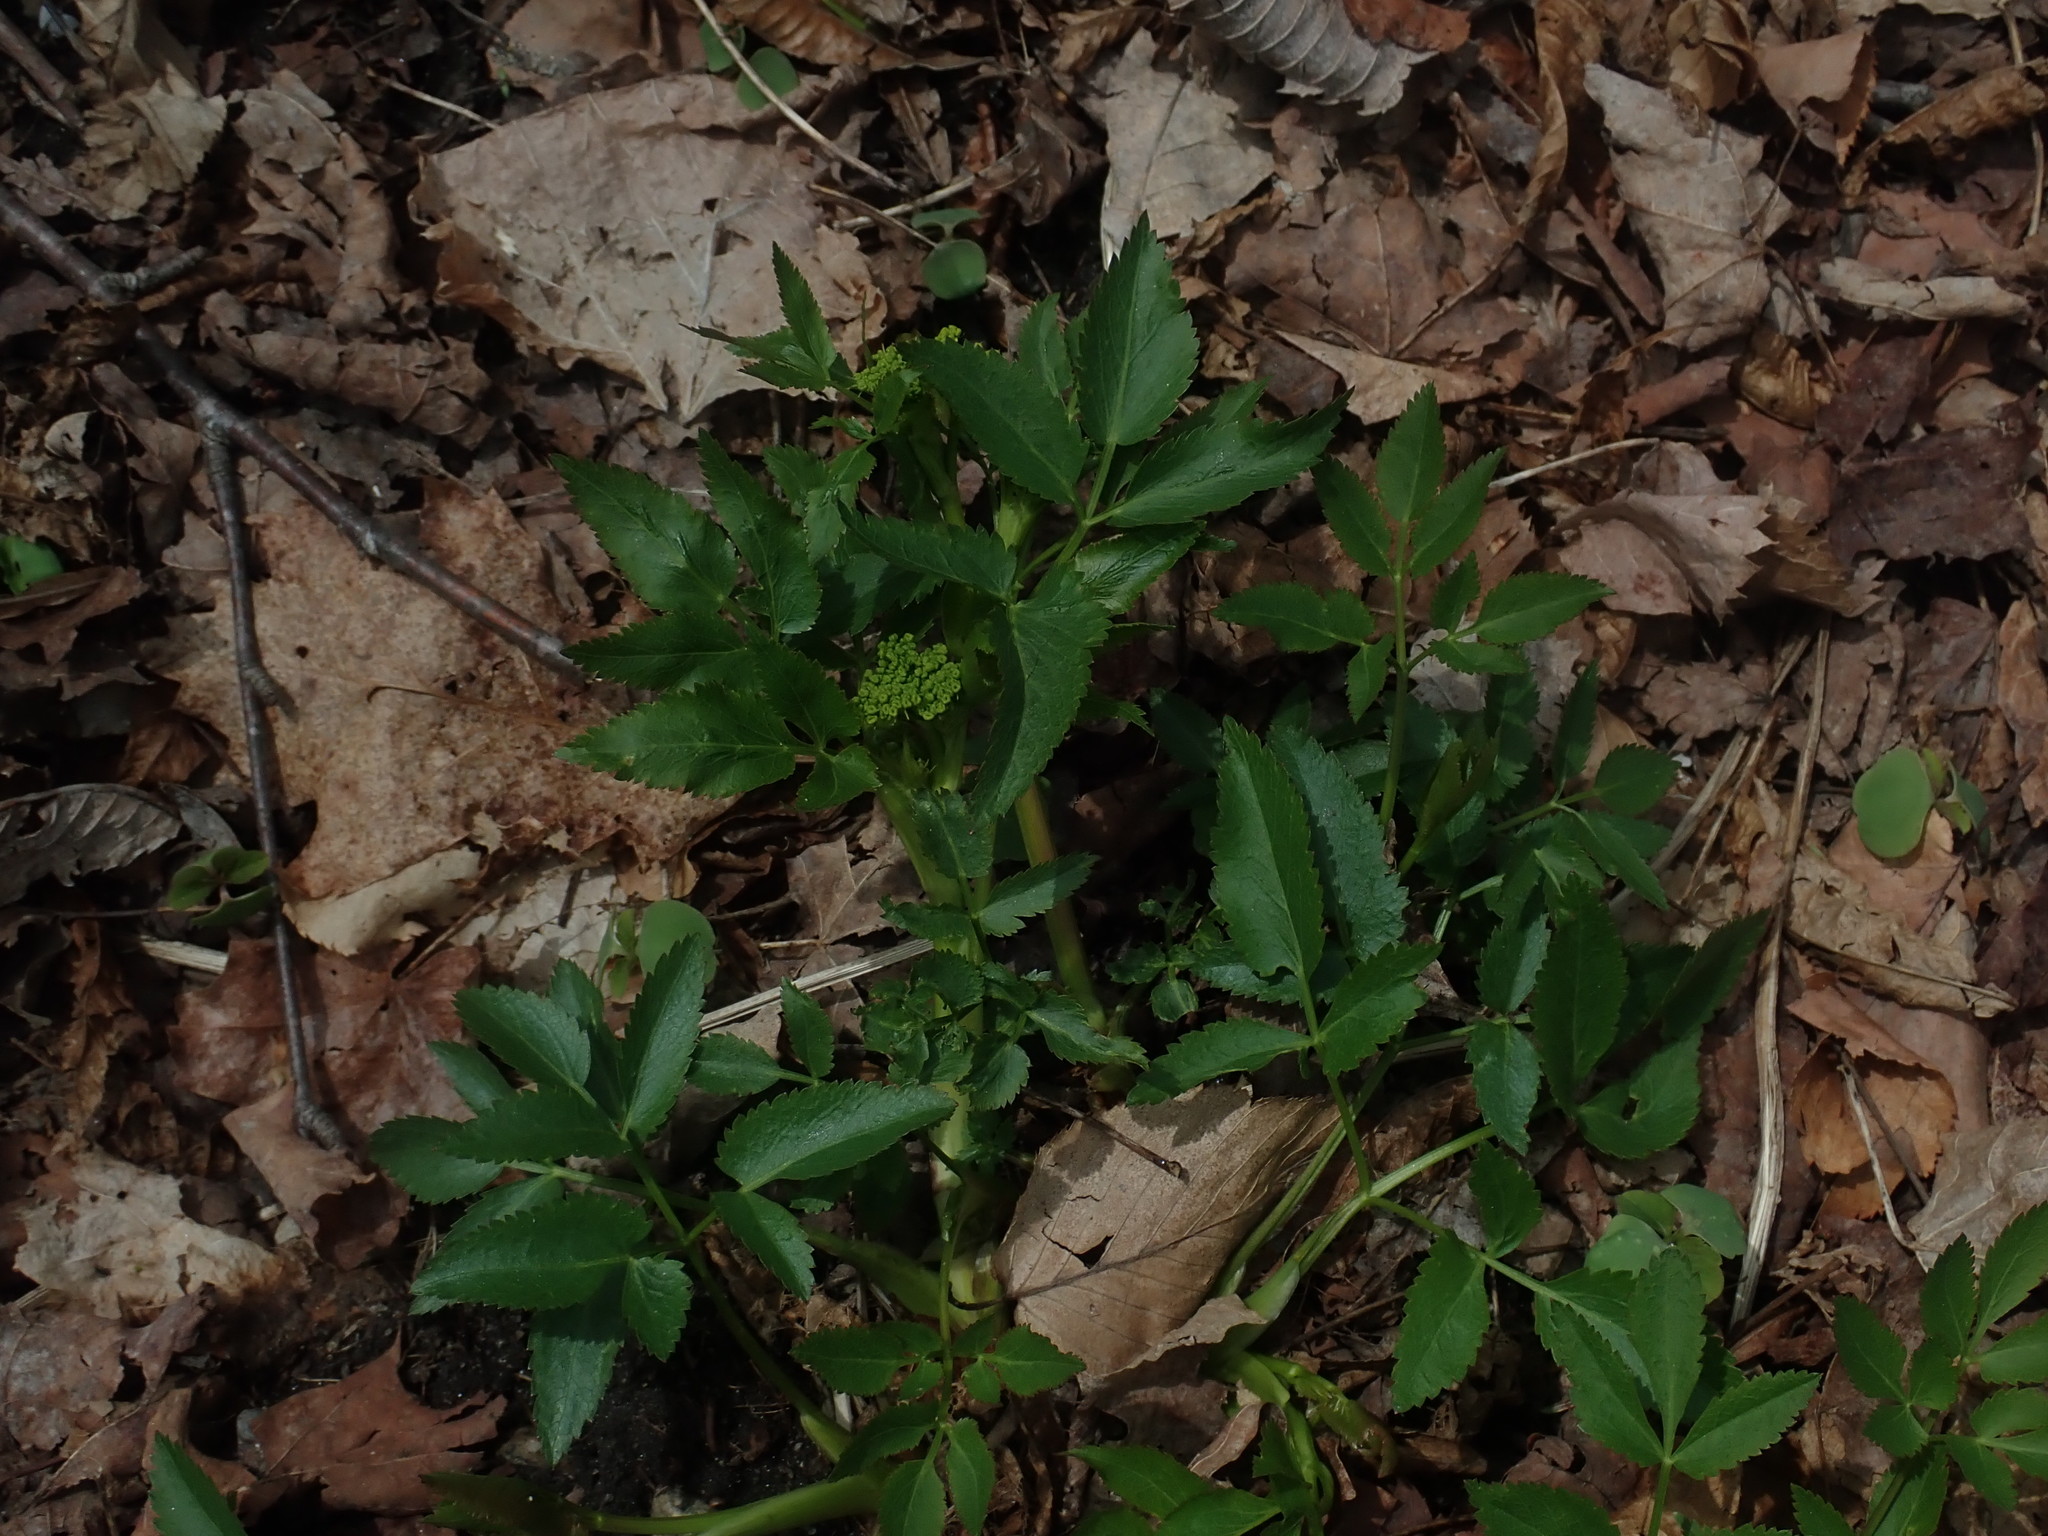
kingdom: Plantae
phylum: Tracheophyta
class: Magnoliopsida
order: Apiales
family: Apiaceae
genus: Zizia
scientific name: Zizia aurea
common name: Golden alexanders
